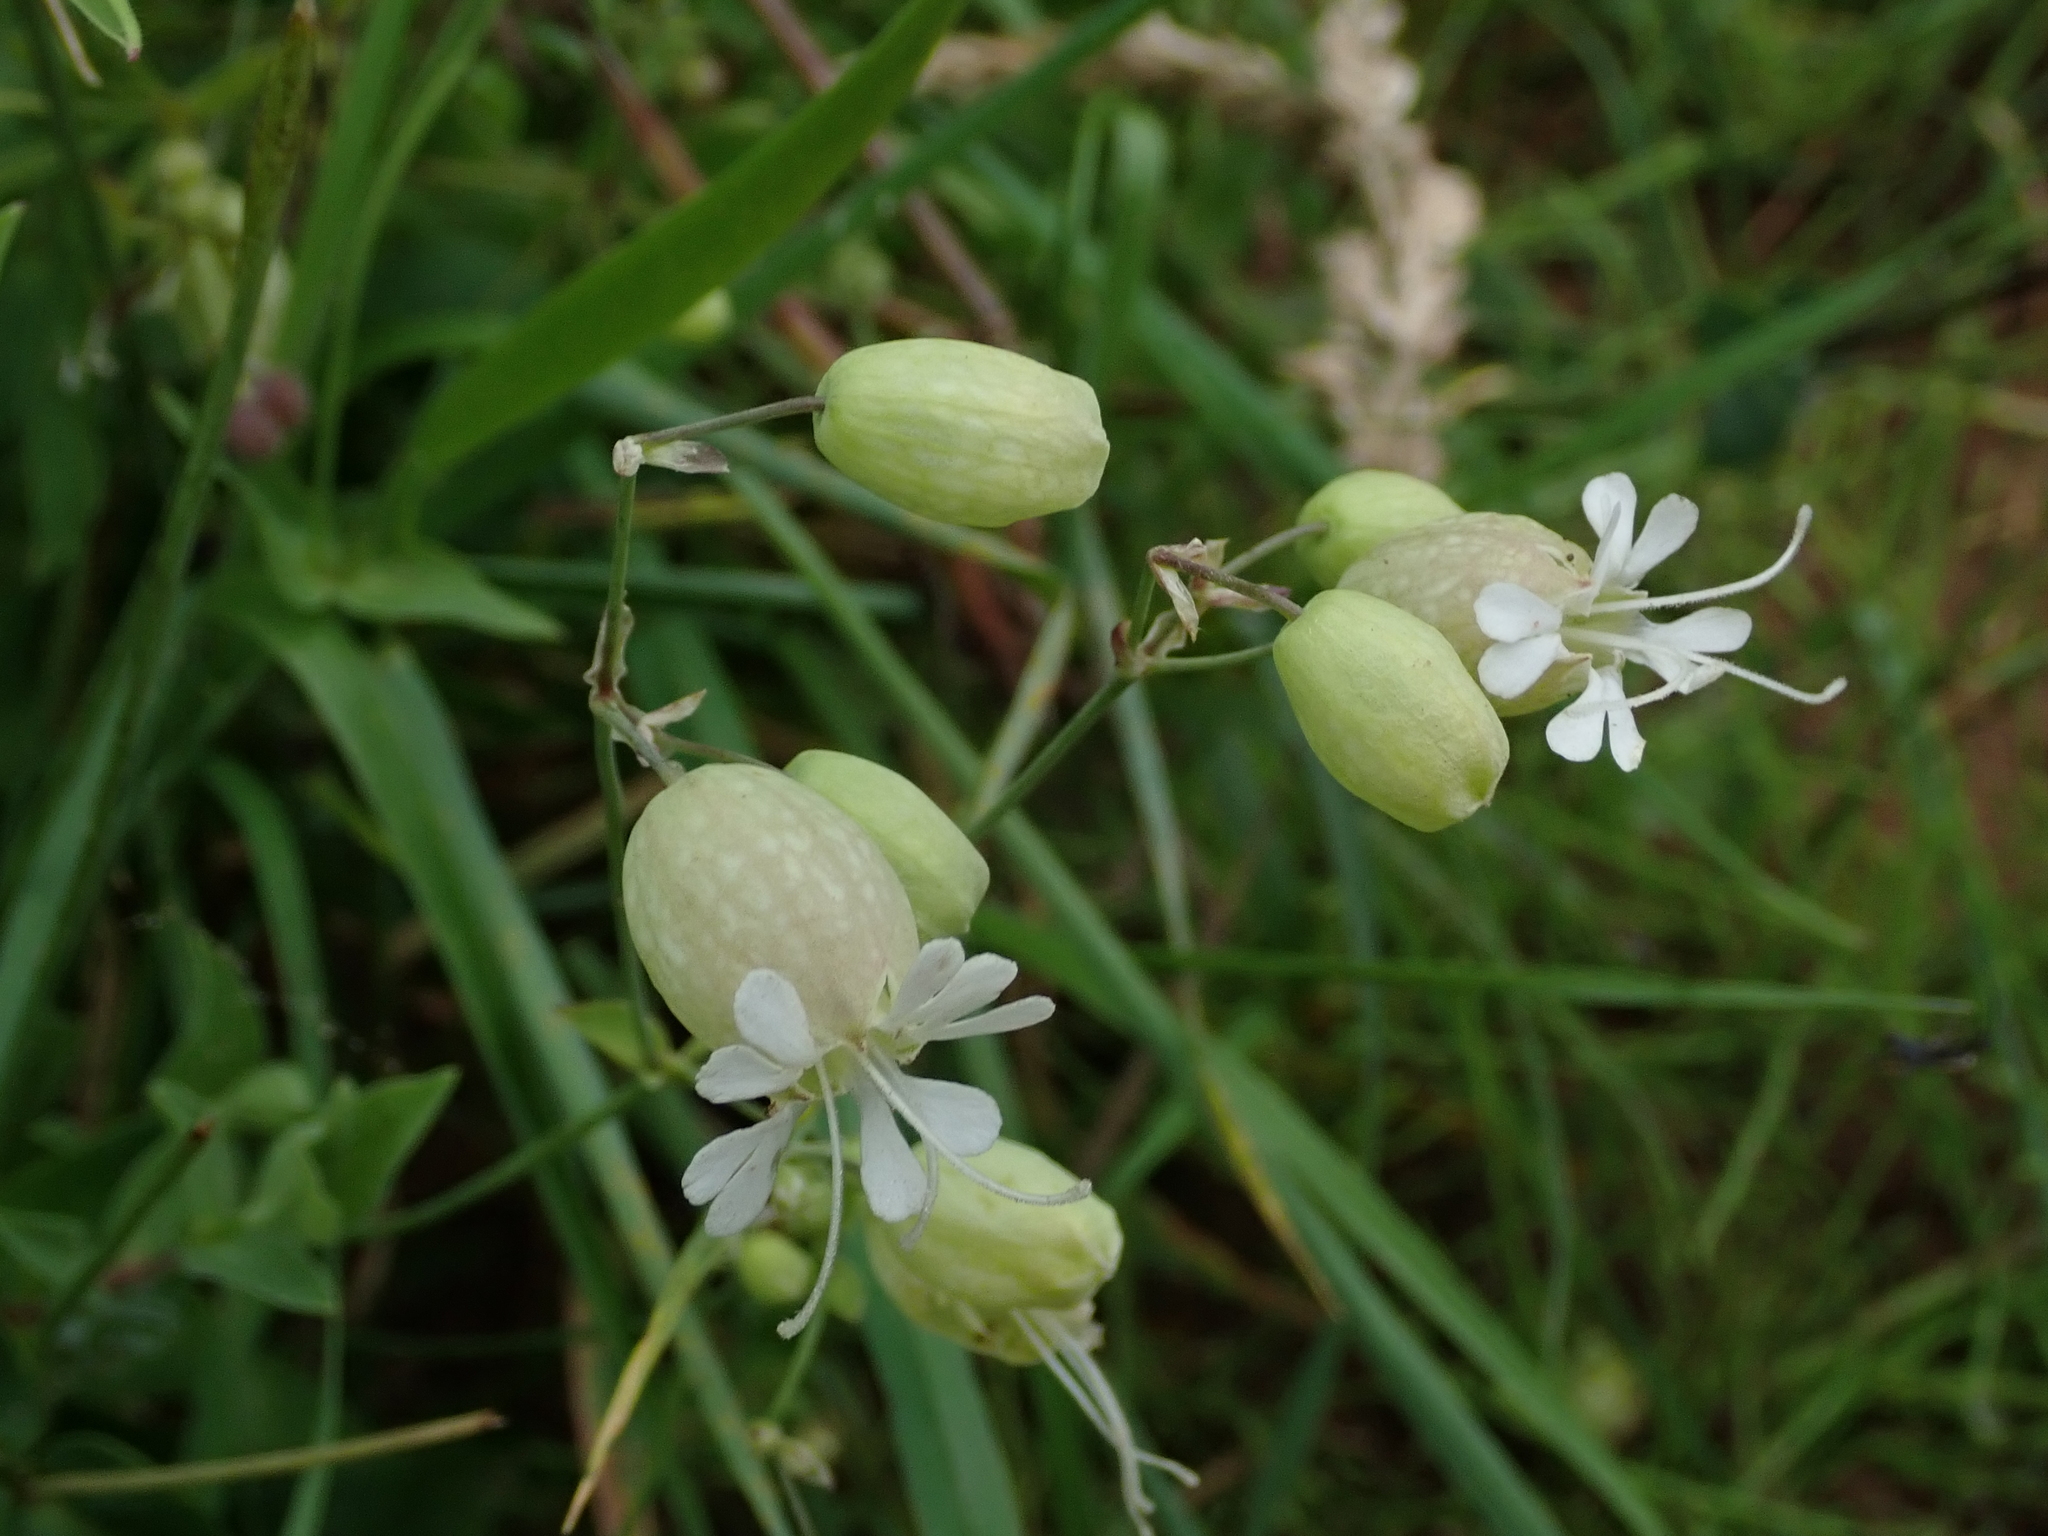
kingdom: Plantae
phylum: Tracheophyta
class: Magnoliopsida
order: Caryophyllales
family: Caryophyllaceae
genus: Silene
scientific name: Silene vulgaris
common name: Bladder campion
